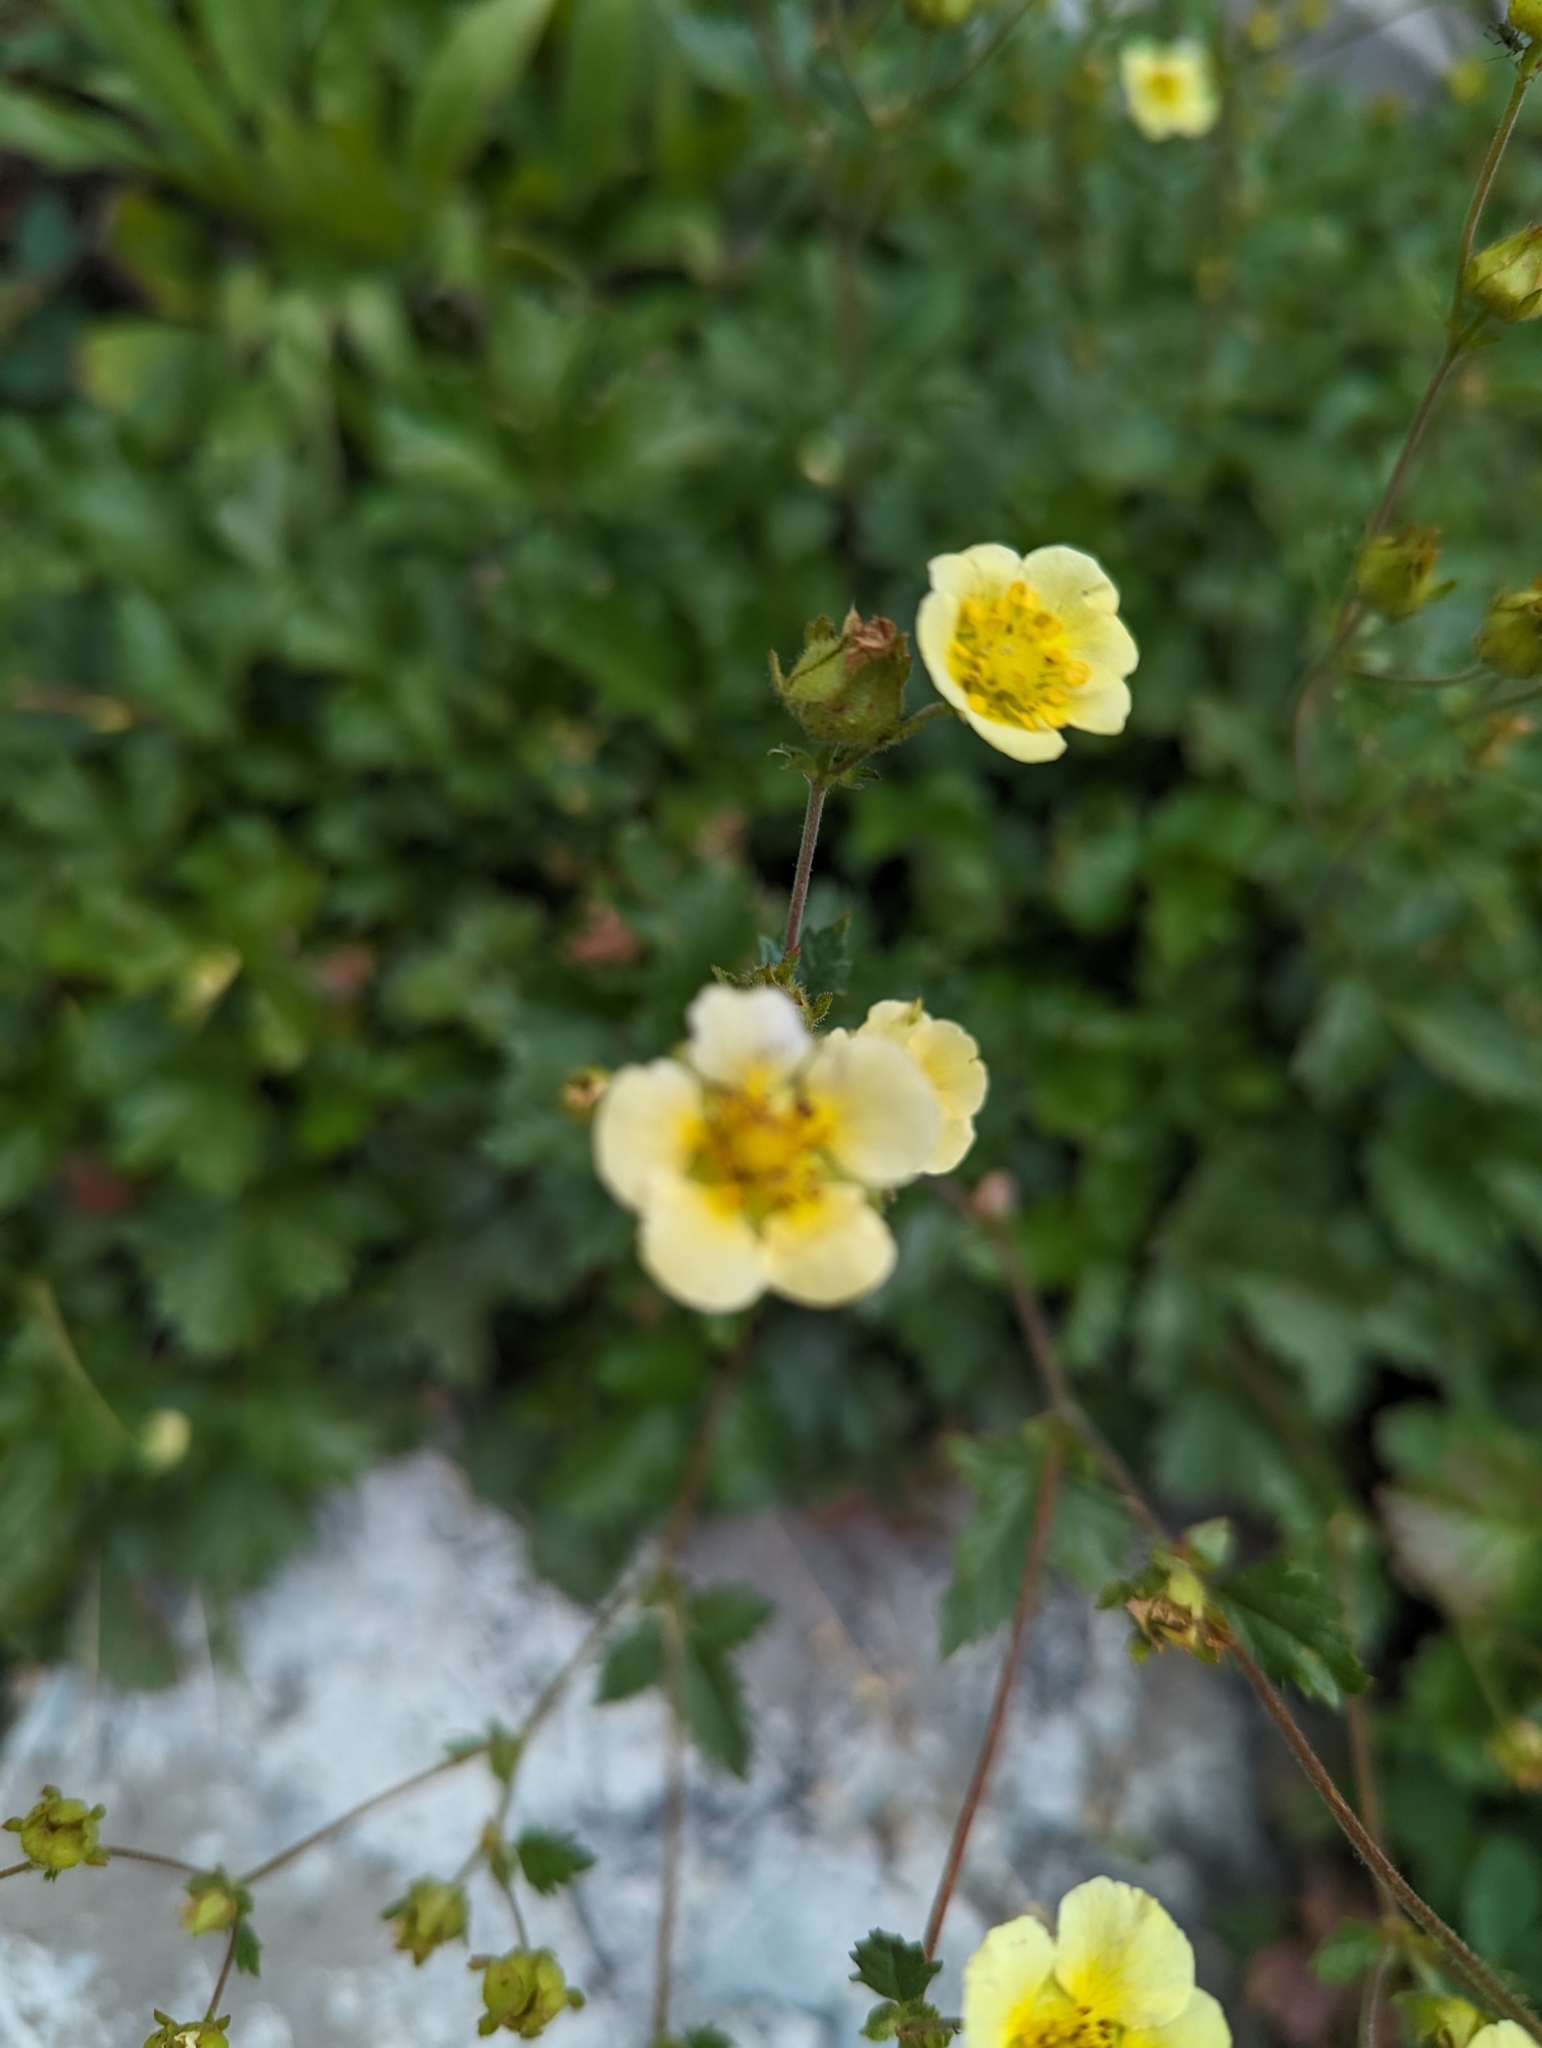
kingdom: Plantae
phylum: Tracheophyta
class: Magnoliopsida
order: Rosales
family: Rosaceae
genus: Drymocallis
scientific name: Drymocallis pseudorupestris
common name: Sticky cinquefoil
